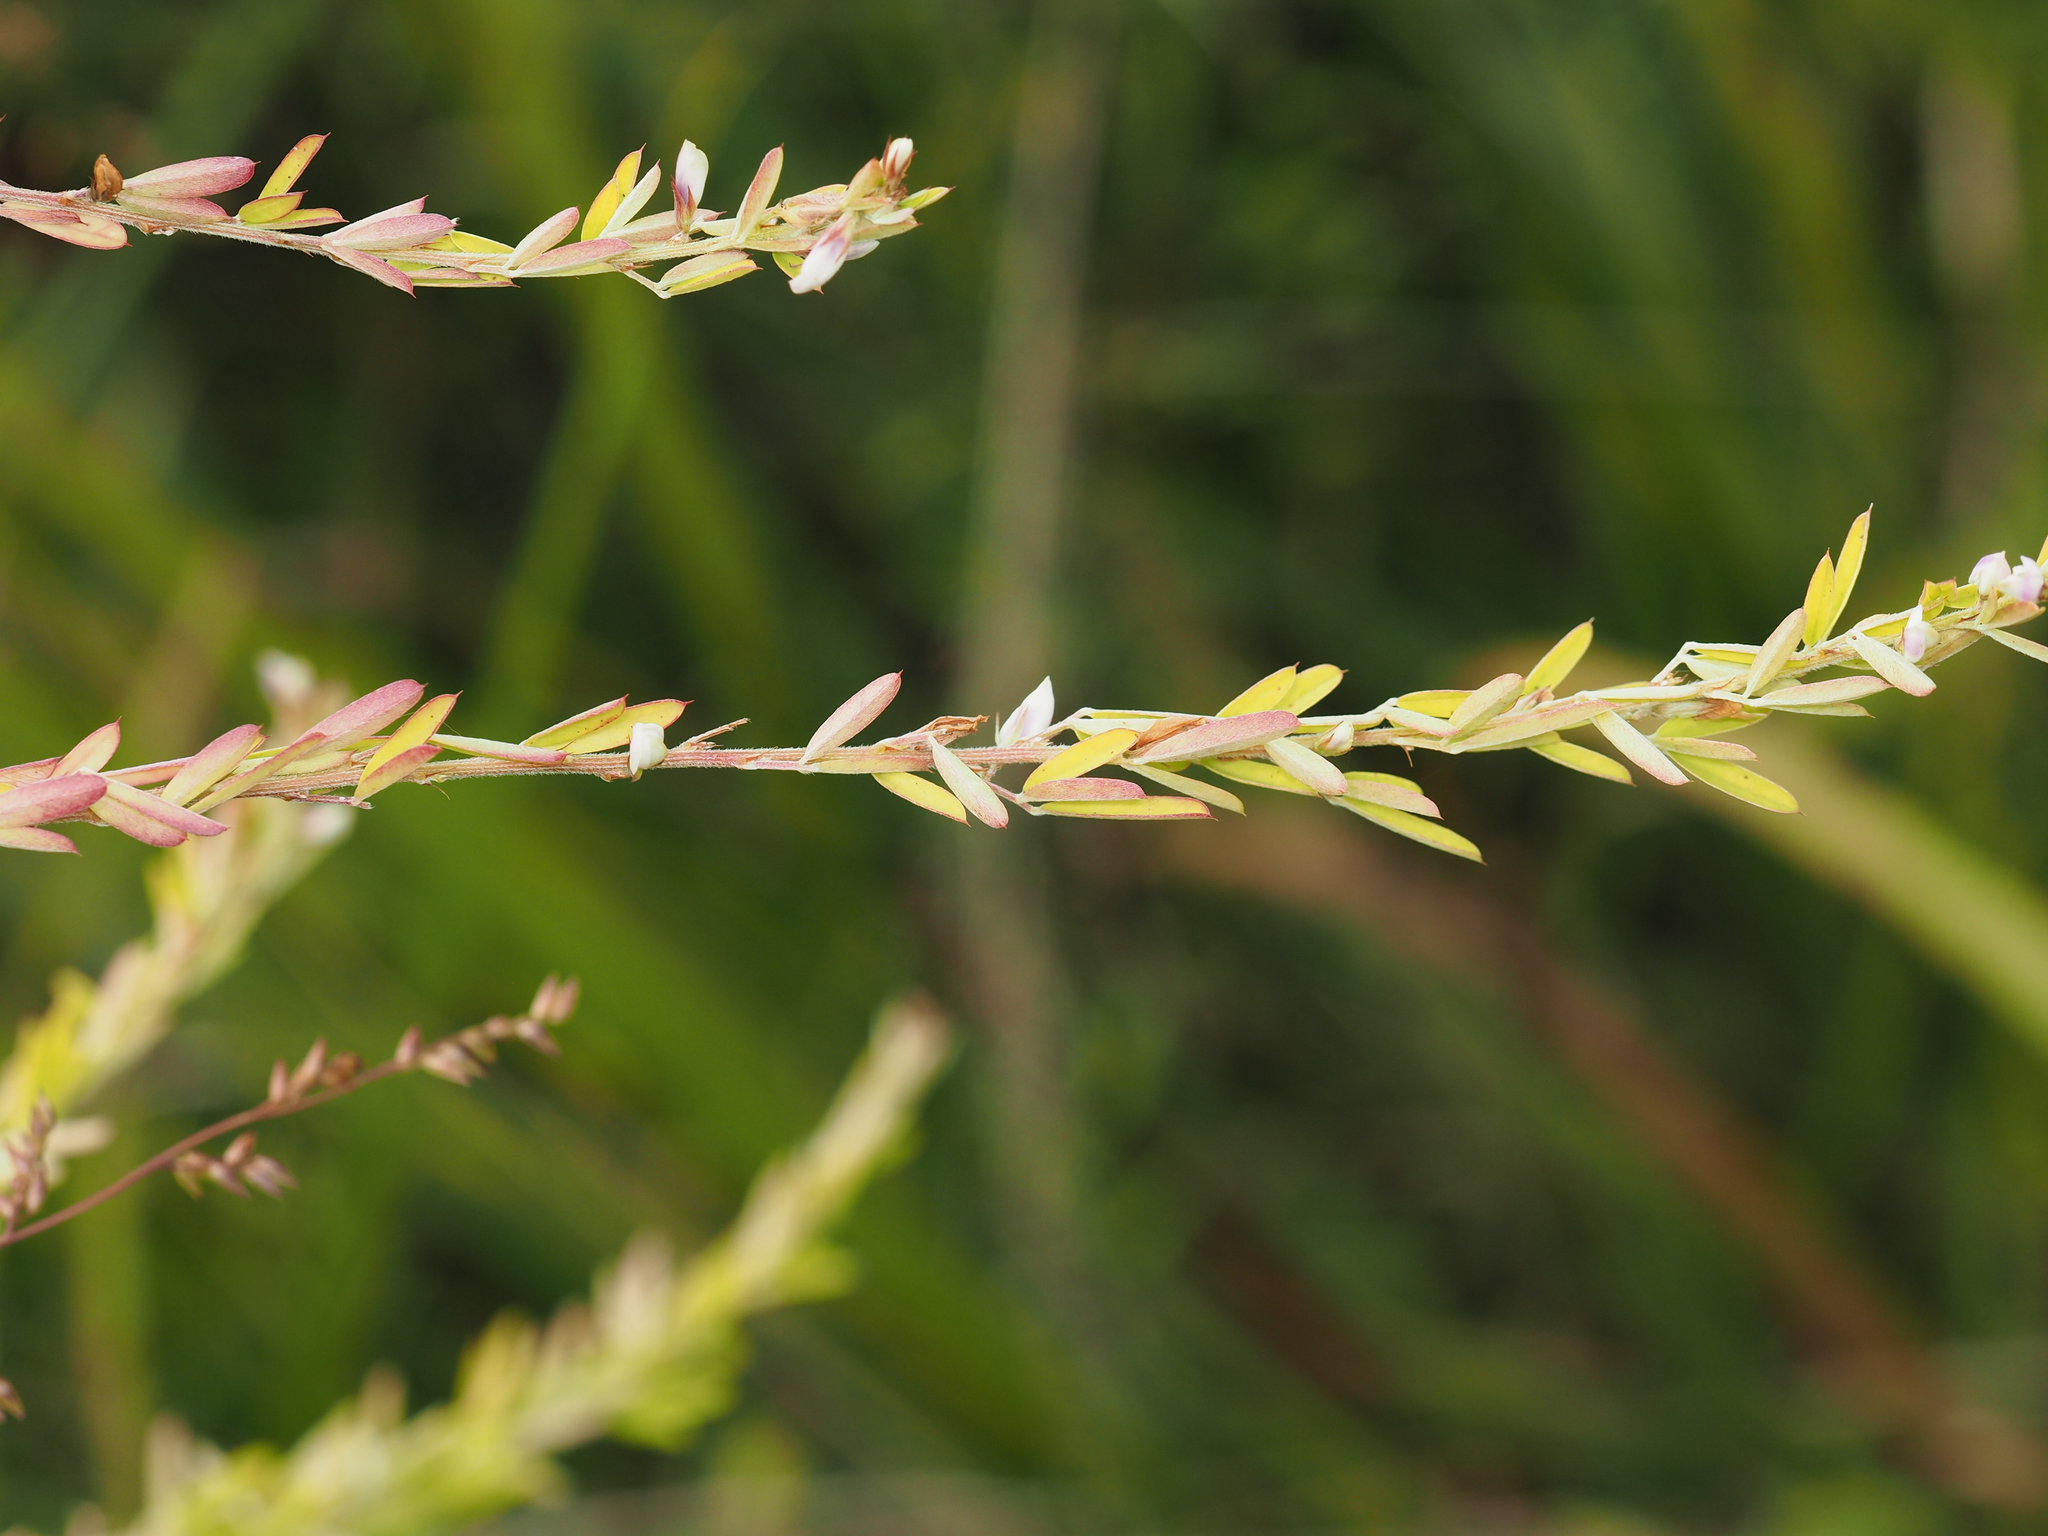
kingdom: Plantae
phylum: Tracheophyta
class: Magnoliopsida
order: Fabales
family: Fabaceae
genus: Lespedeza
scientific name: Lespedeza cuneata
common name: Chinese bush-clover
